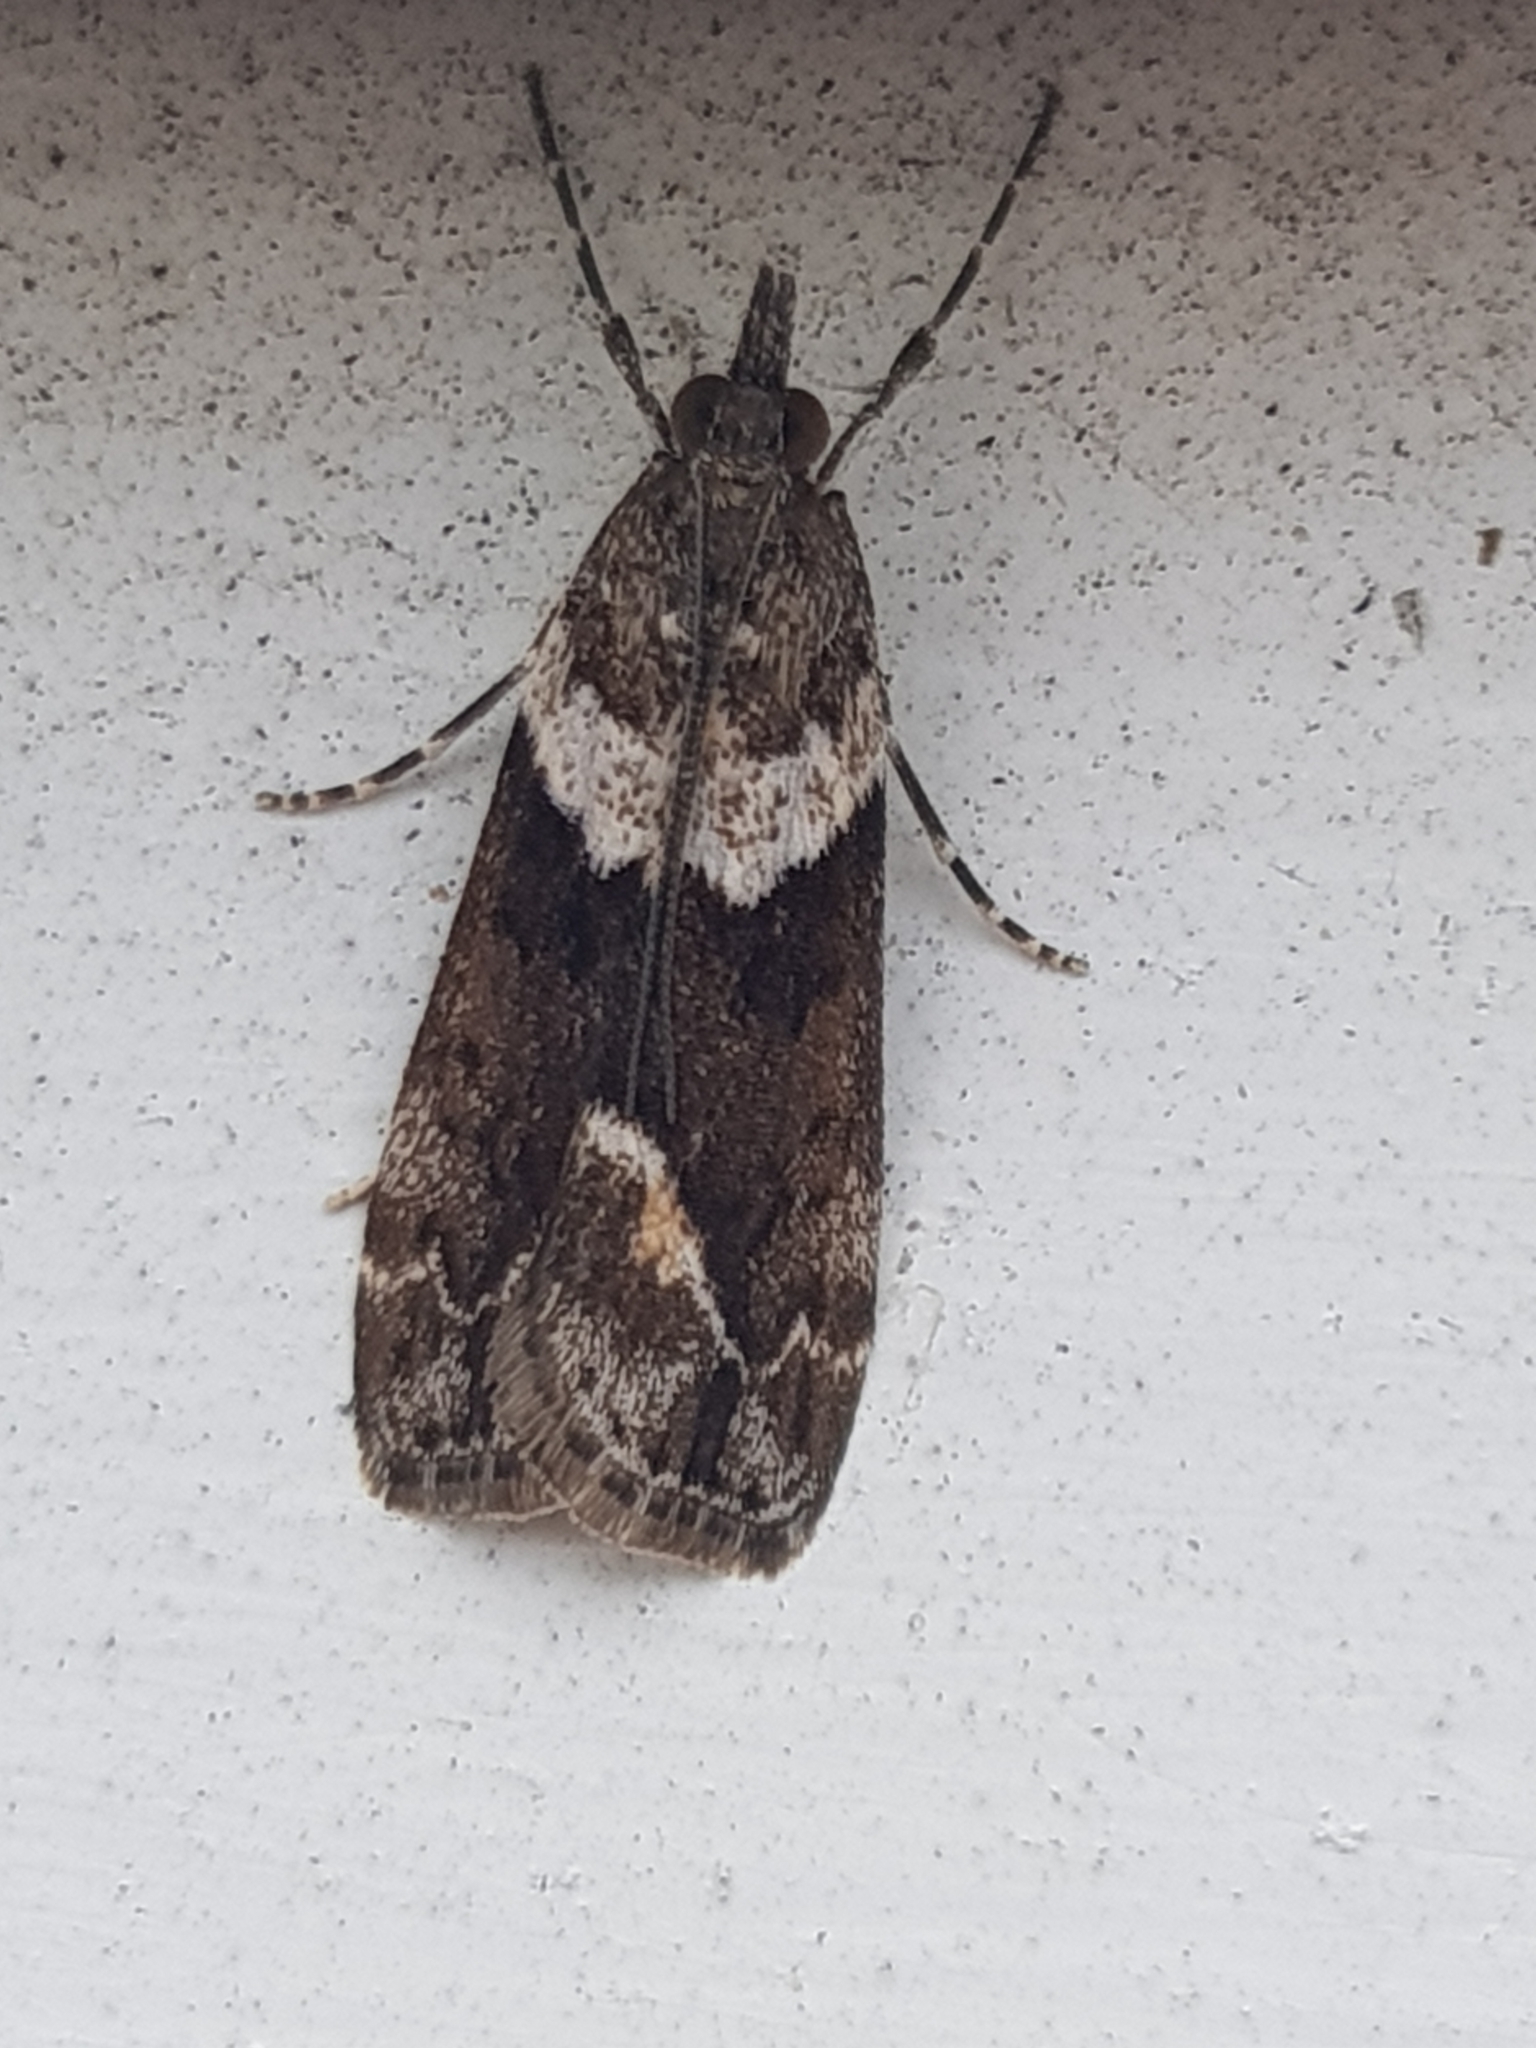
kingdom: Animalia
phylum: Arthropoda
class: Insecta
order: Lepidoptera
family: Crambidae
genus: Eudonia
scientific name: Eudonia submarginalis
